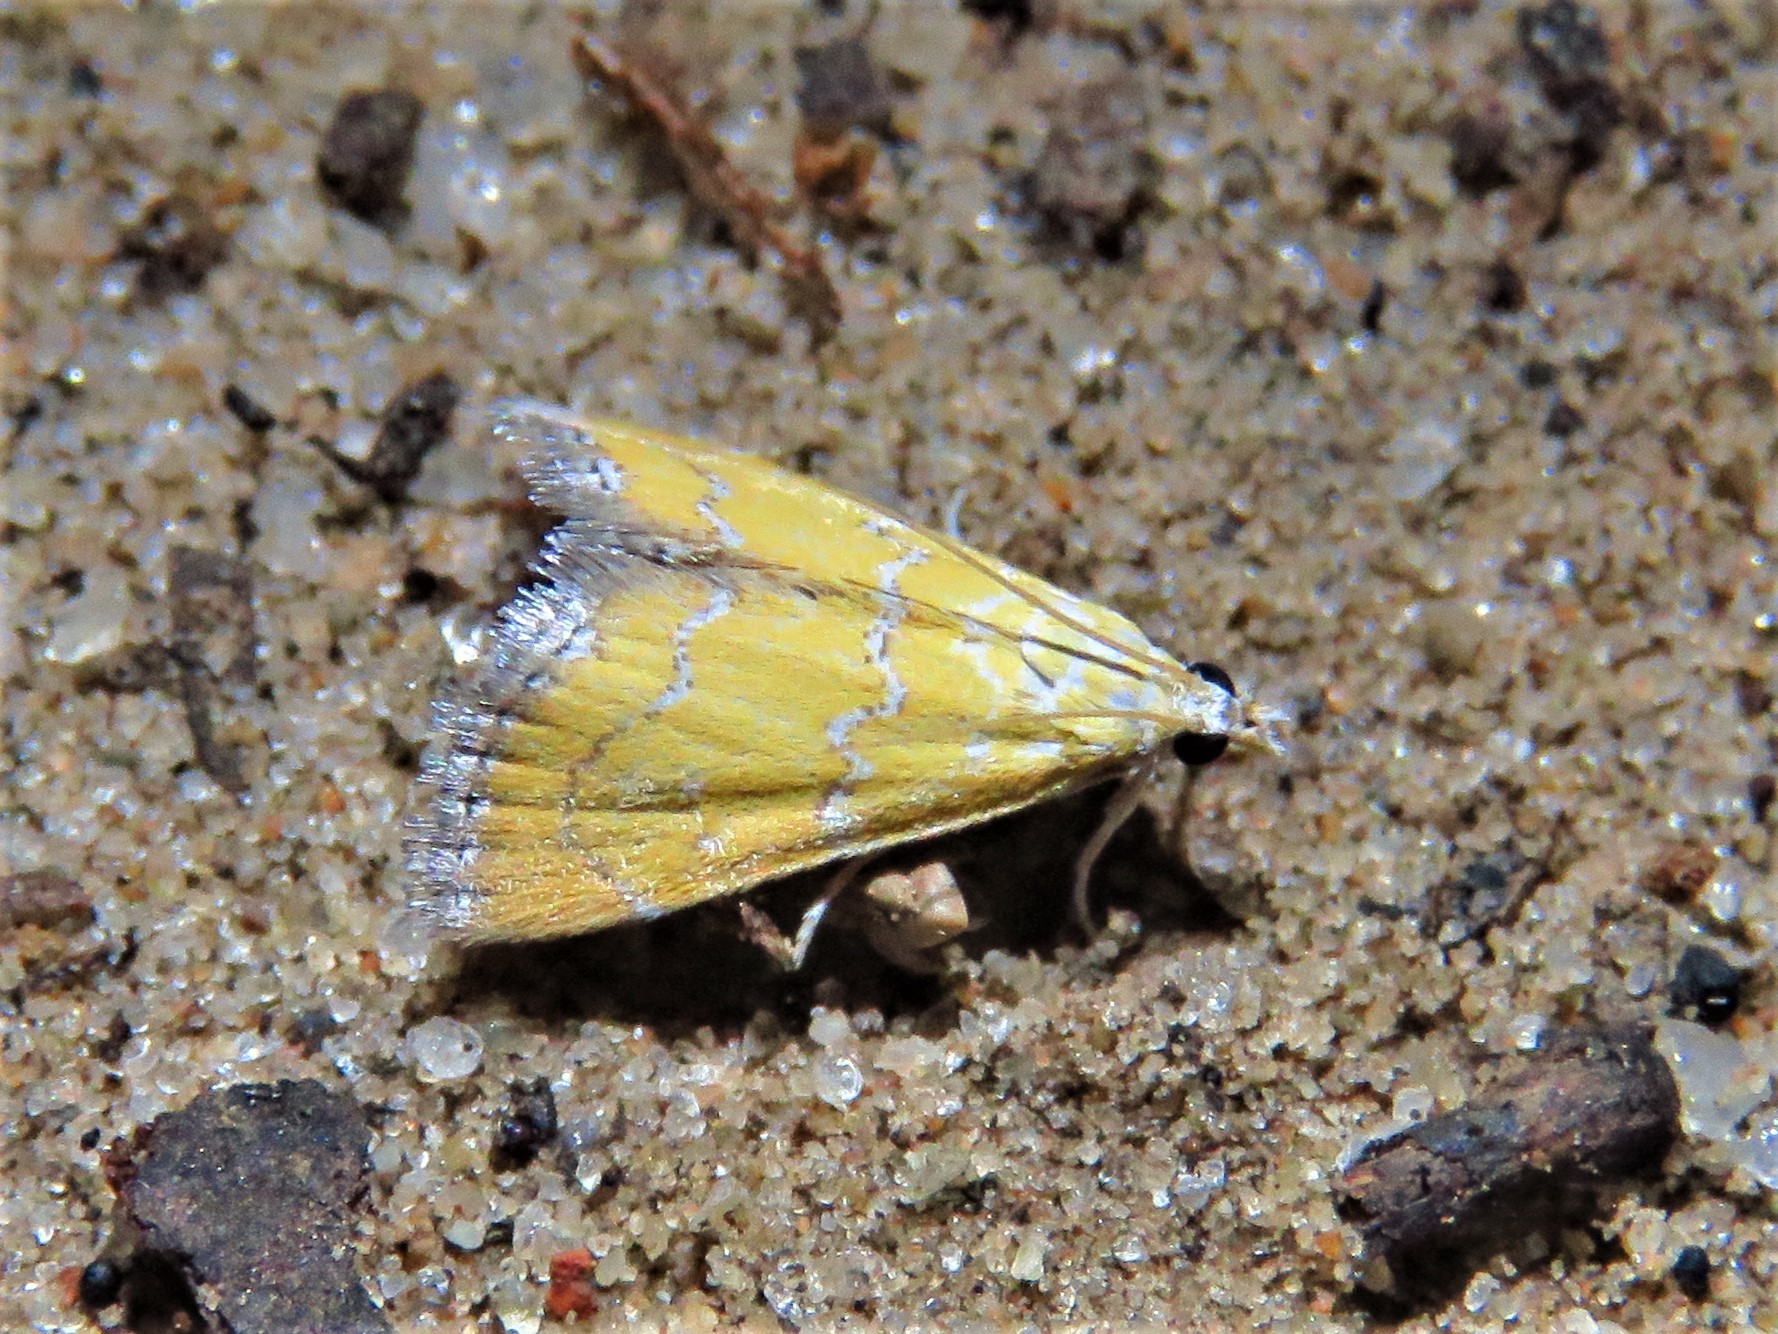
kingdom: Animalia
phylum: Arthropoda
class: Insecta
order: Lepidoptera
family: Crambidae
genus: Xanthophysa
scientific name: Xanthophysa psychicalis
